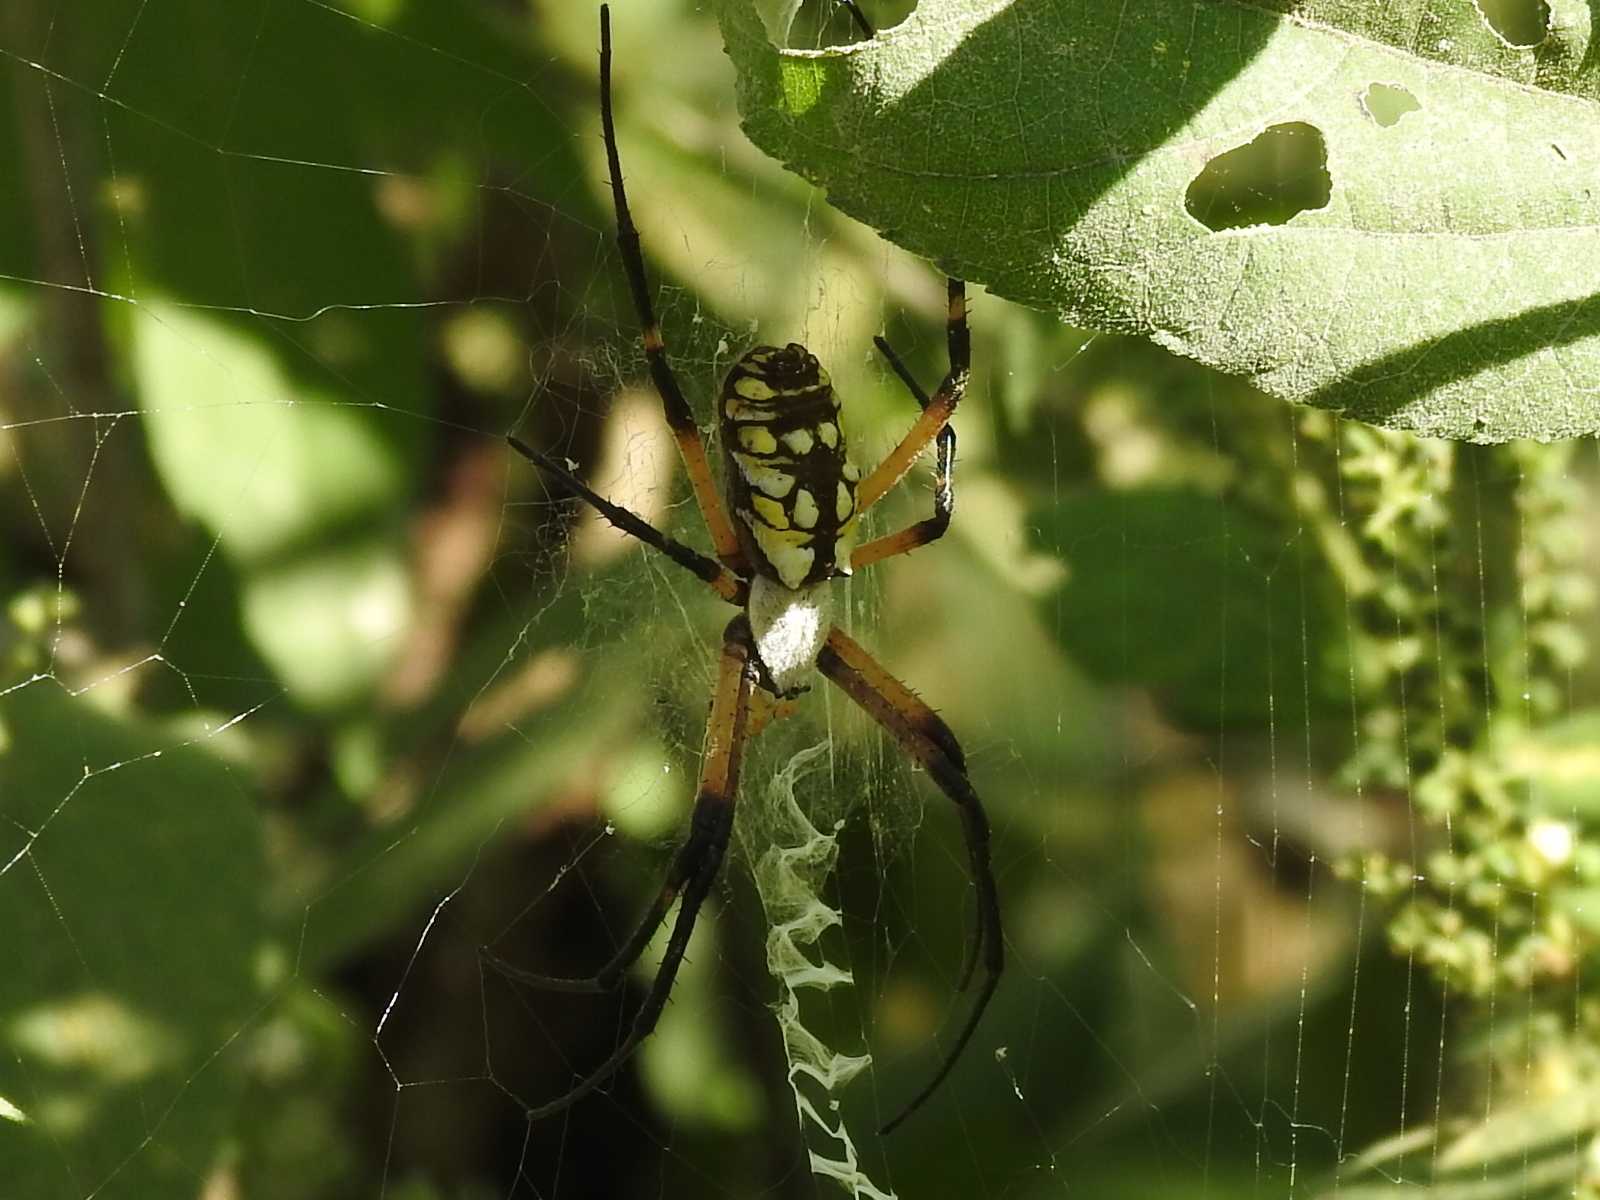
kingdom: Animalia
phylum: Arthropoda
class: Arachnida
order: Araneae
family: Araneidae
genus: Argiope
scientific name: Argiope aurantia
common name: Orb weavers
